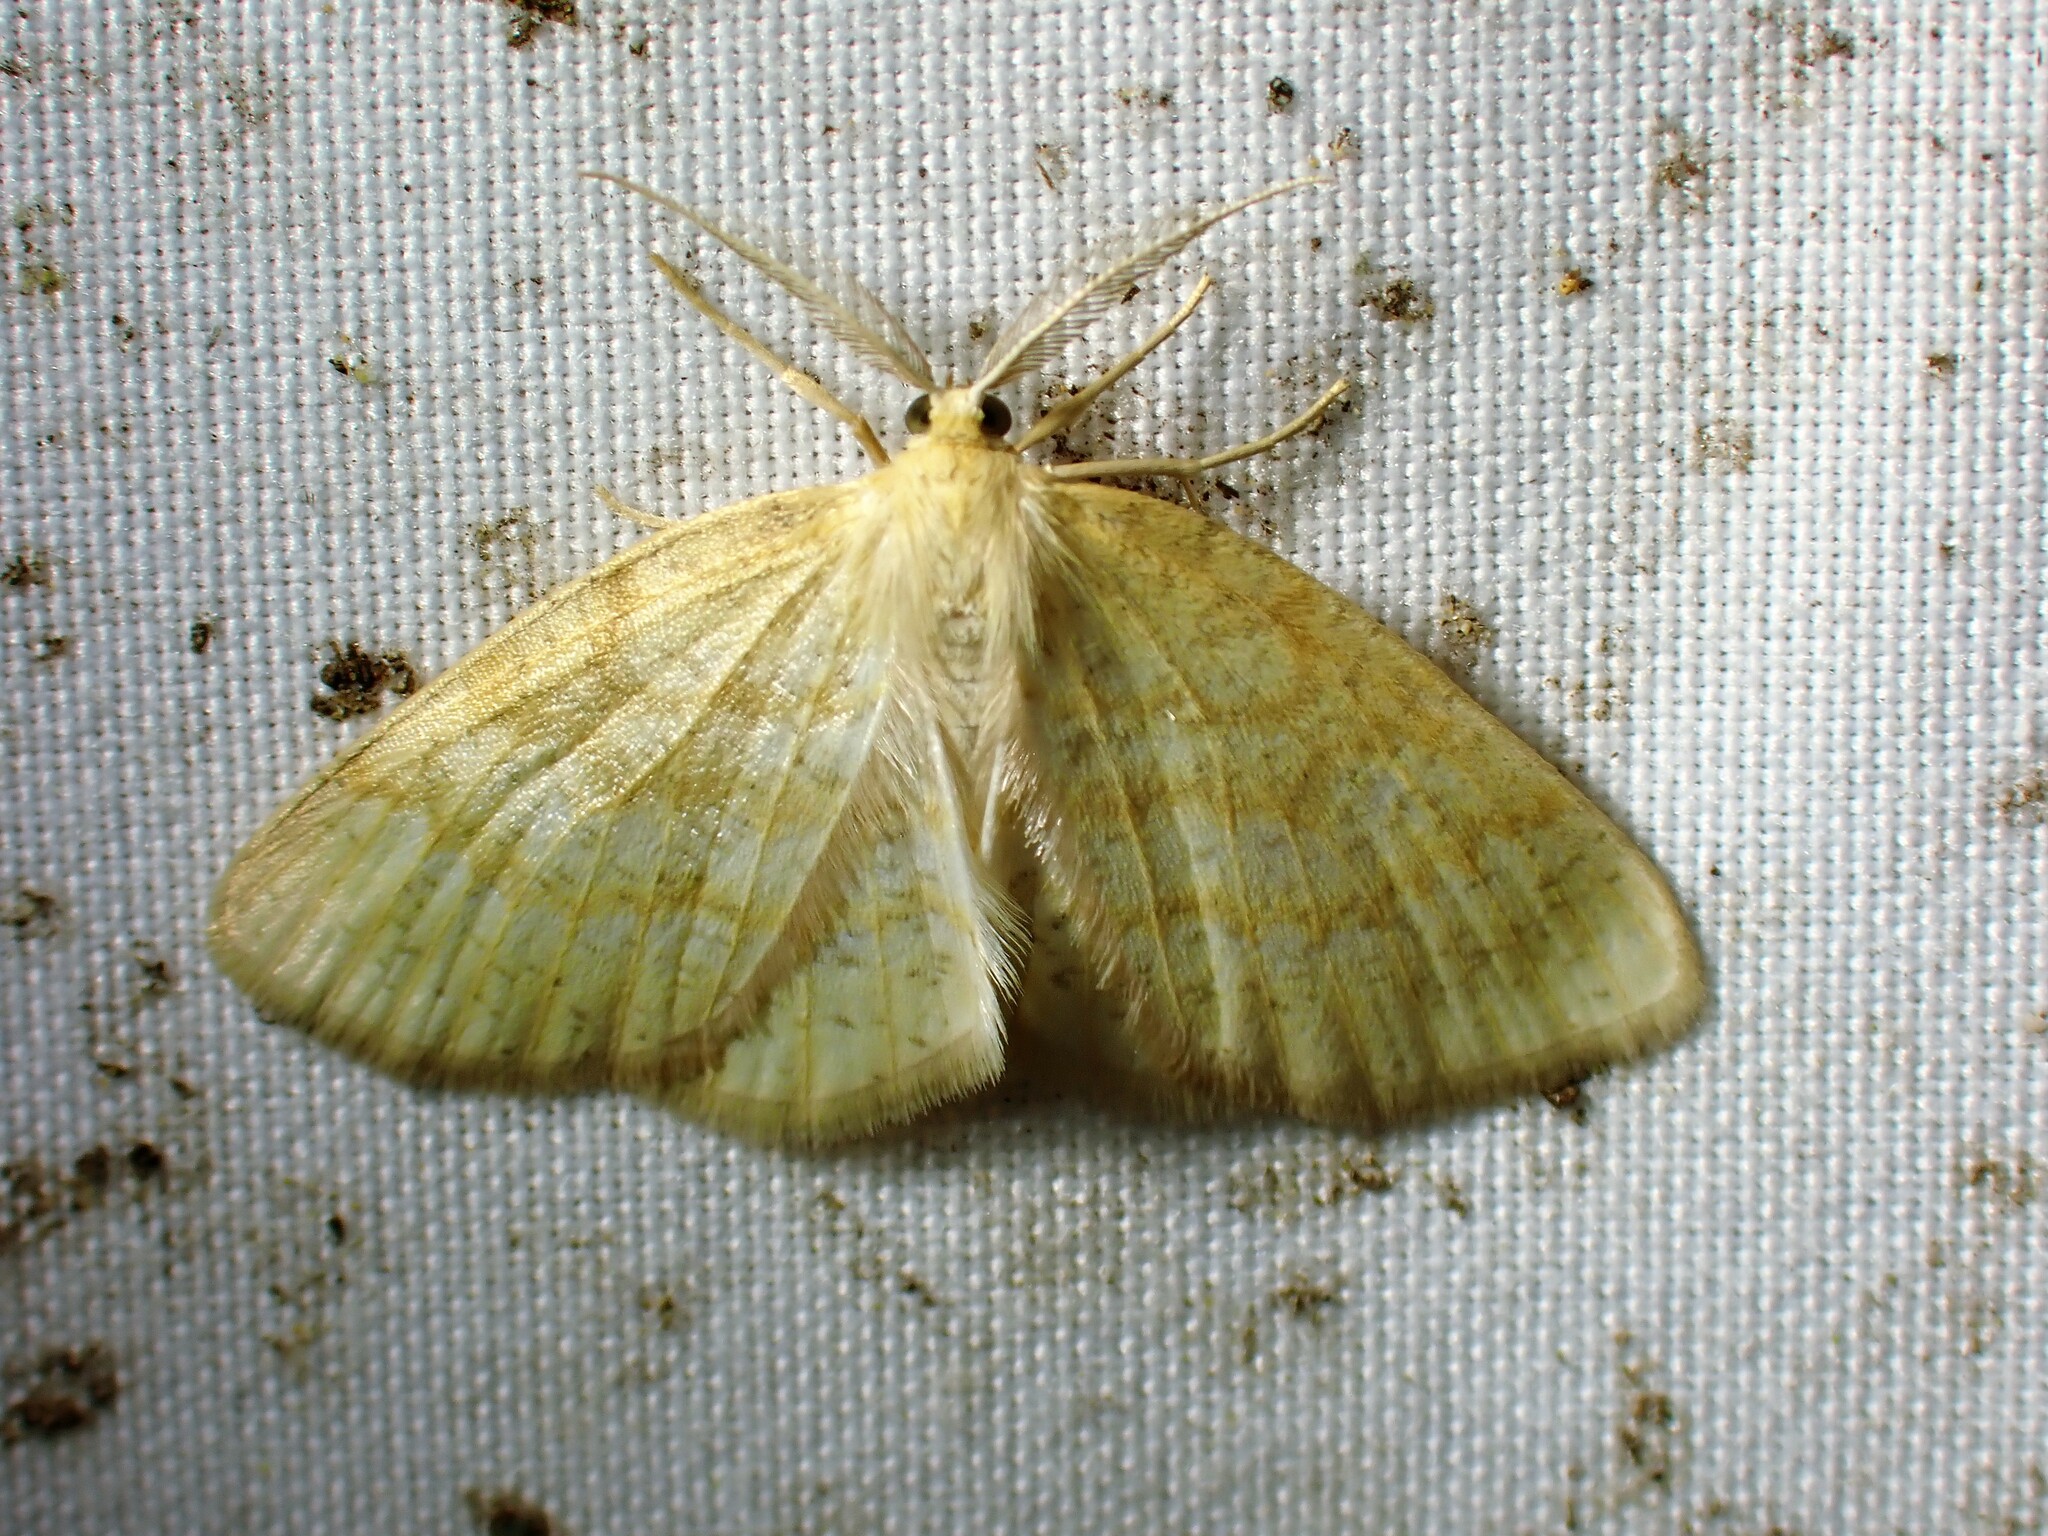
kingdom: Animalia
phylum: Arthropoda
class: Insecta
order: Lepidoptera
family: Geometridae
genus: Cabera
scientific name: Cabera erythemaria
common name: Yellow-dusted cream moth
